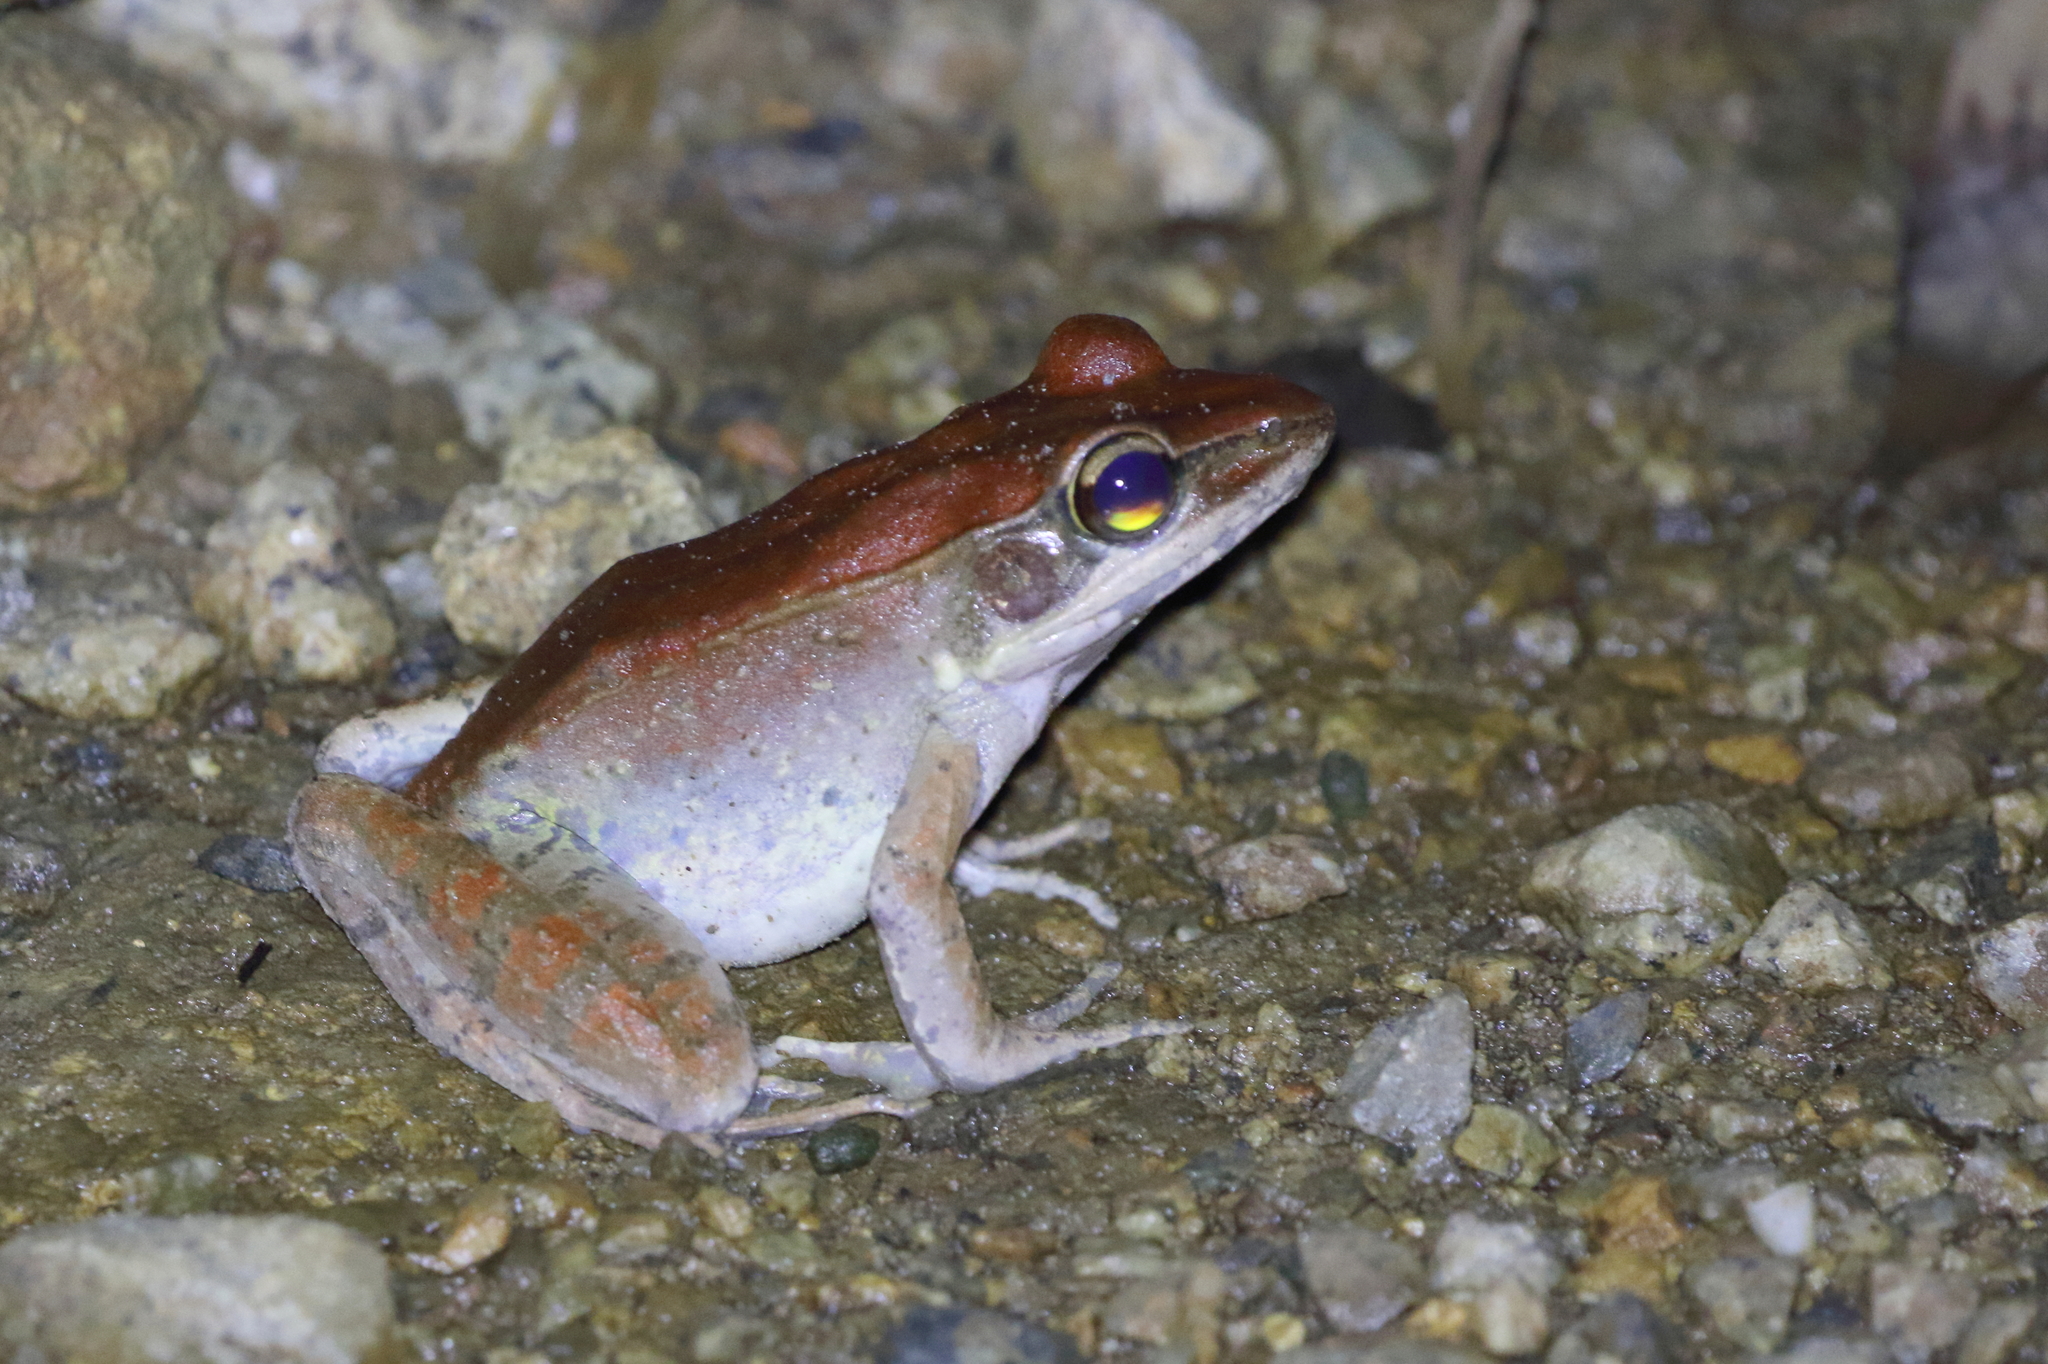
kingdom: Animalia
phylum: Chordata
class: Amphibia
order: Anura
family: Ranidae
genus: Papurana
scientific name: Papurana daemeli
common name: Arhem rana
